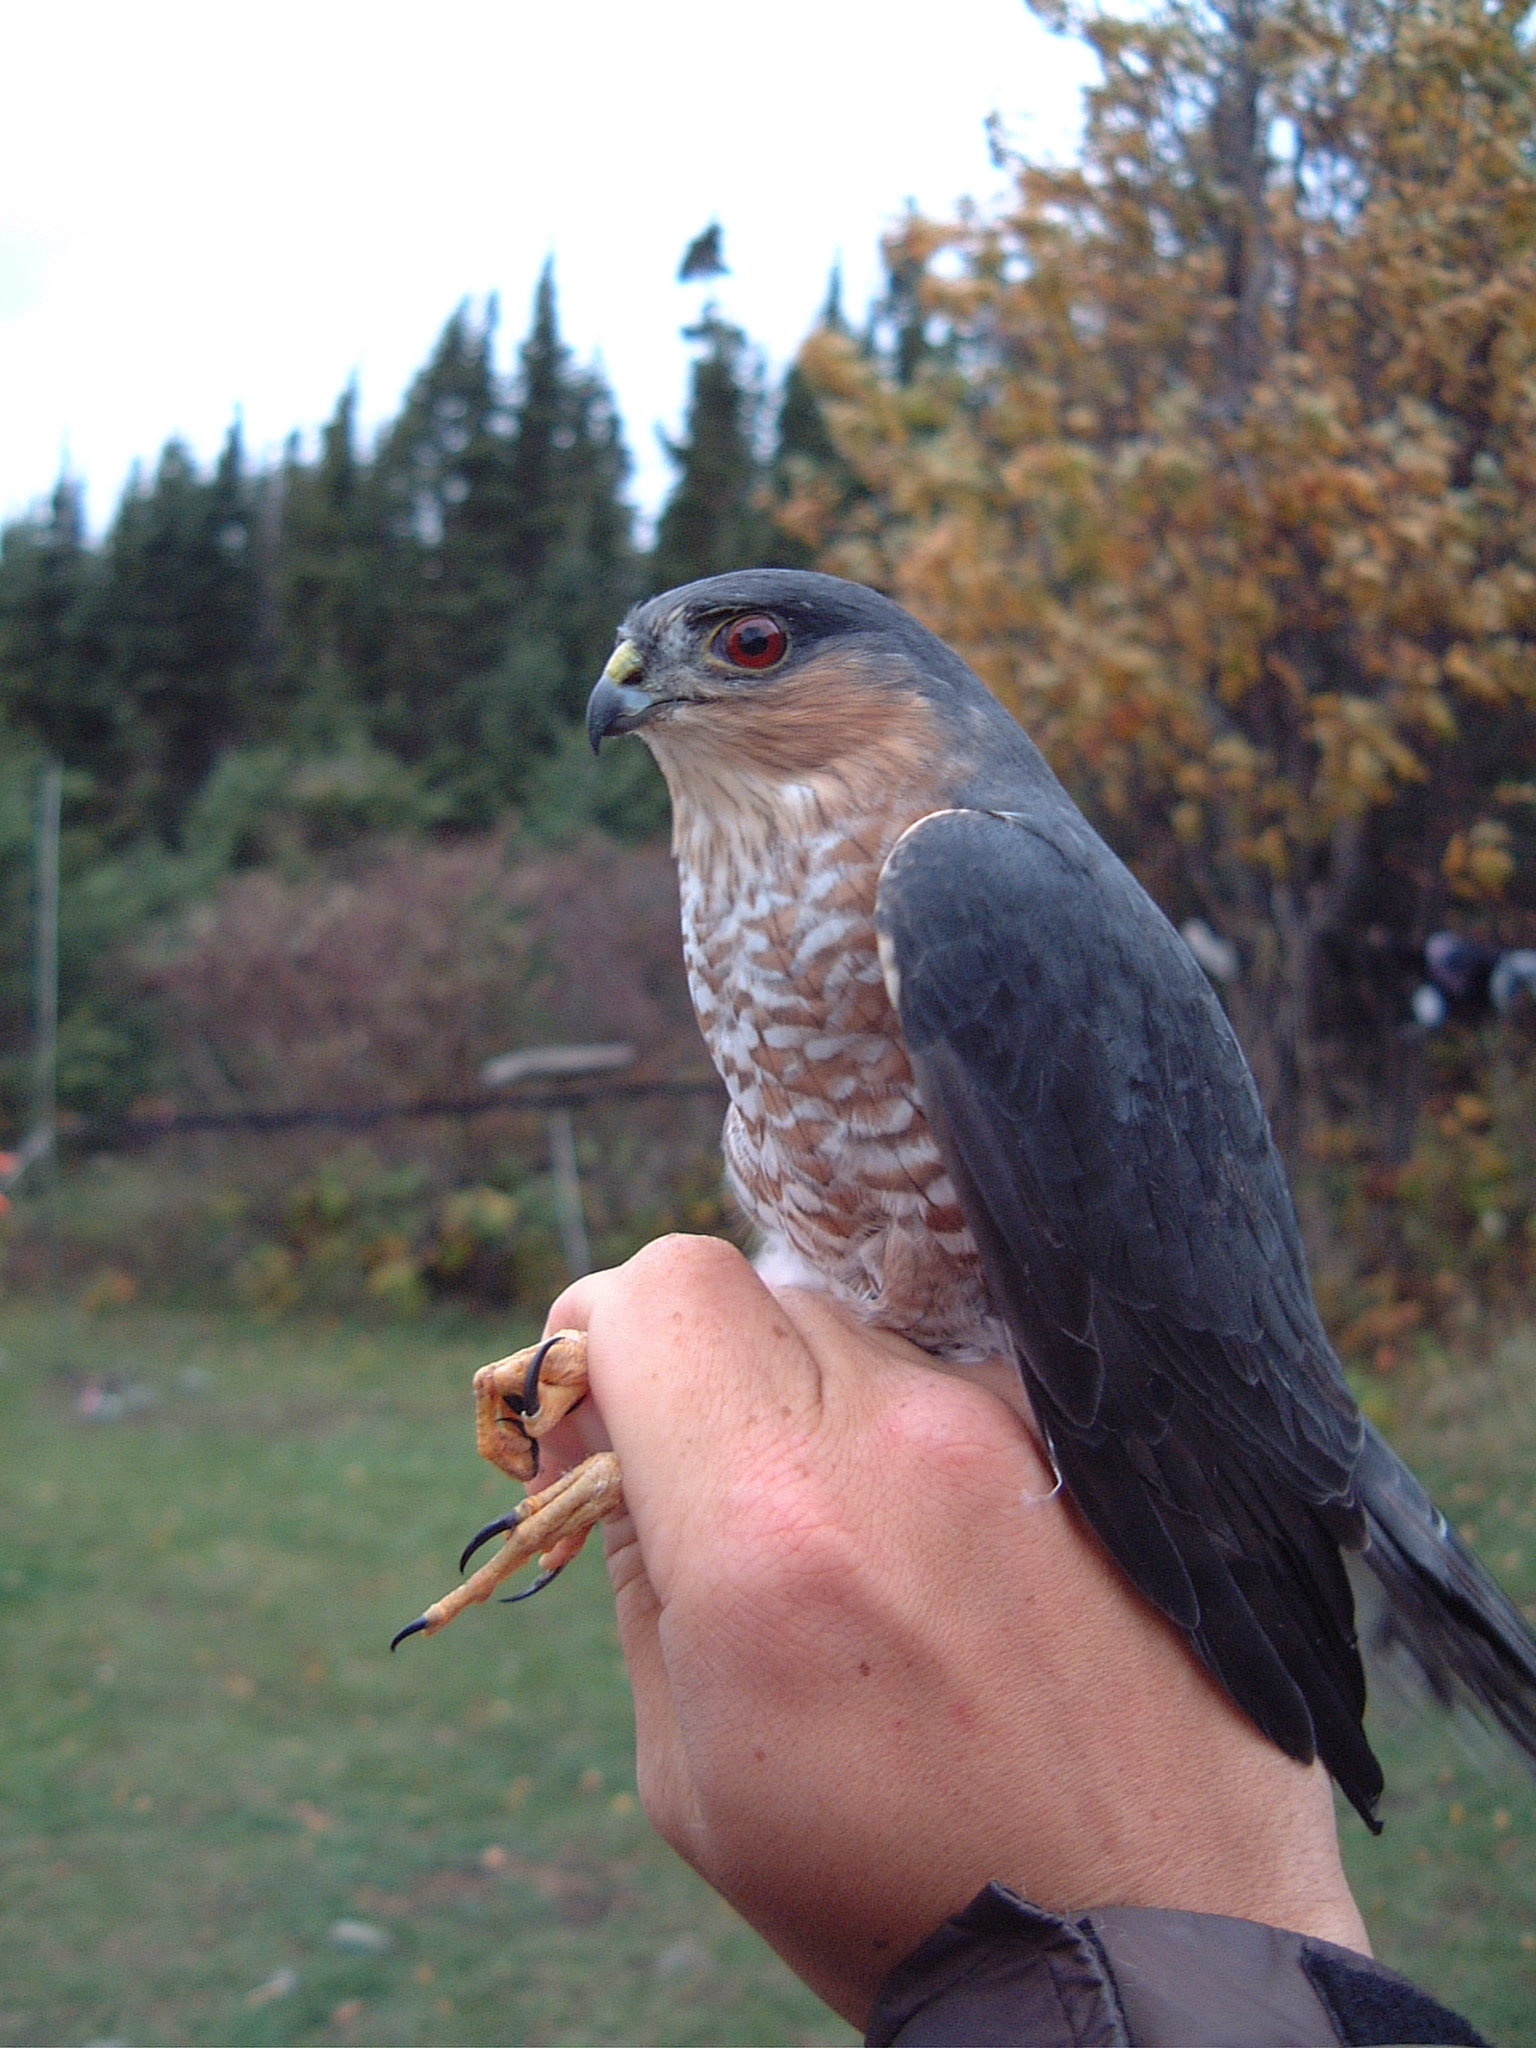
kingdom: Animalia
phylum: Chordata
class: Aves
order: Accipitriformes
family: Accipitridae
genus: Accipiter
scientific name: Accipiter striatus
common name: Sharp-shinned hawk
